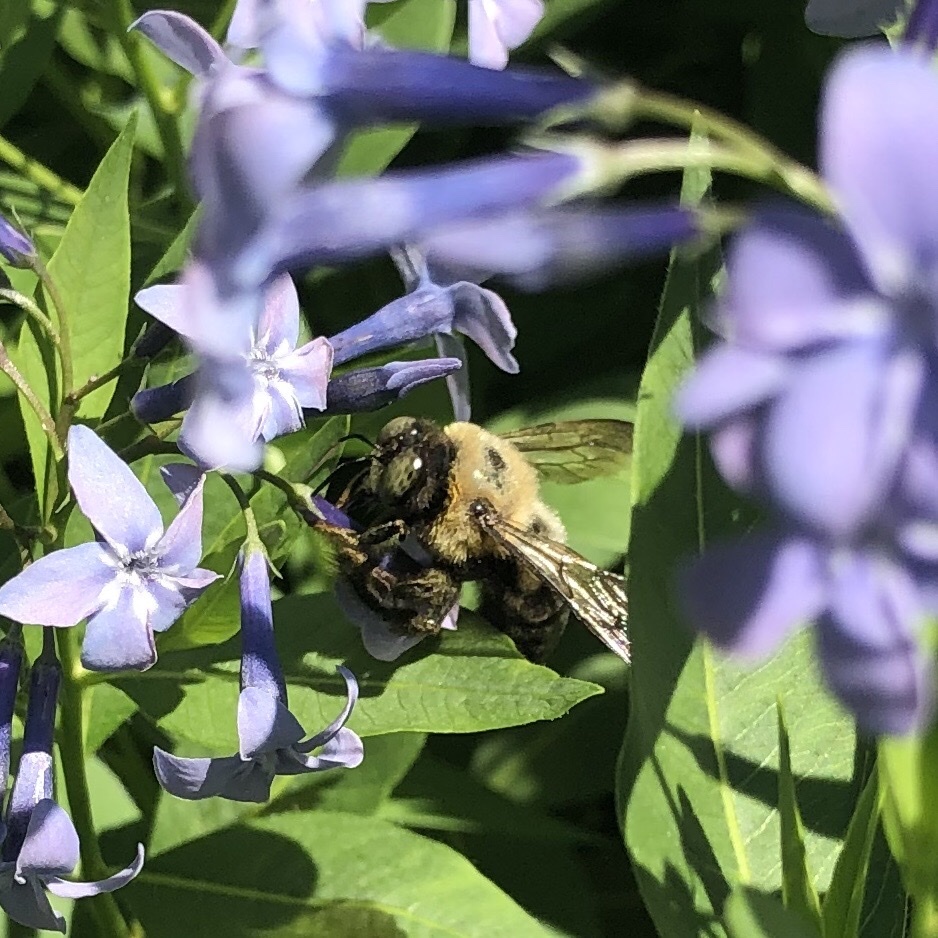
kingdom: Animalia
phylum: Arthropoda
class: Insecta
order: Hymenoptera
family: Apidae
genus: Xylocopa
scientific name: Xylocopa virginica
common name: Carpenter bee
